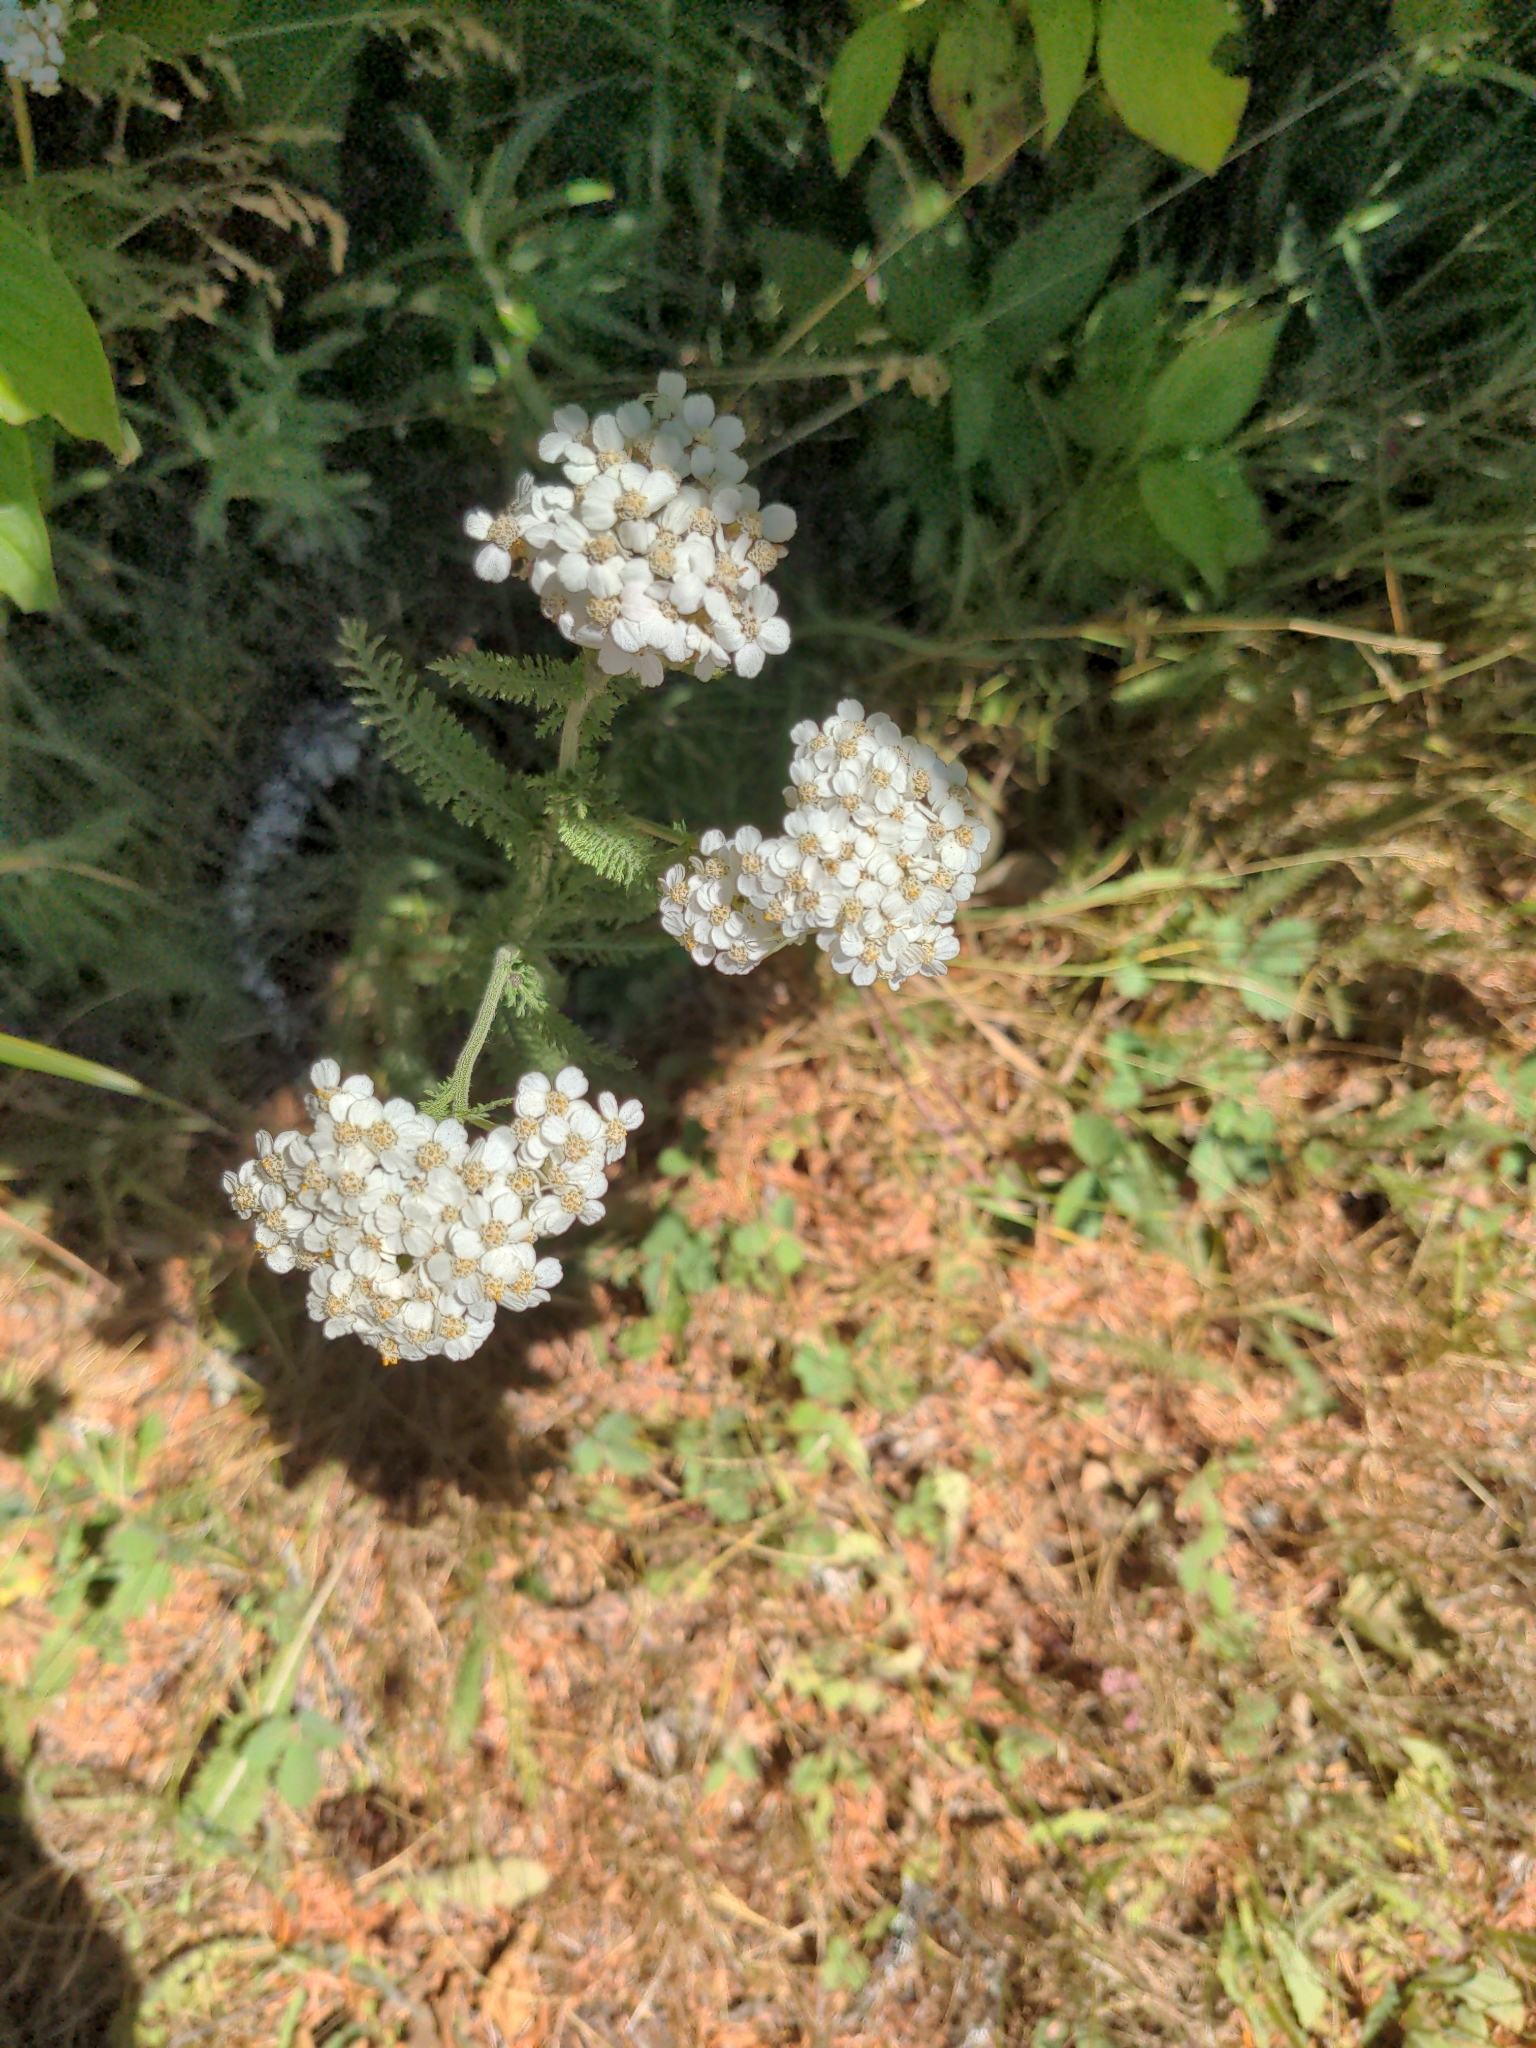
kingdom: Plantae
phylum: Tracheophyta
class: Magnoliopsida
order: Asterales
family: Asteraceae
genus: Achillea
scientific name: Achillea millefolium
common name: Yarrow
